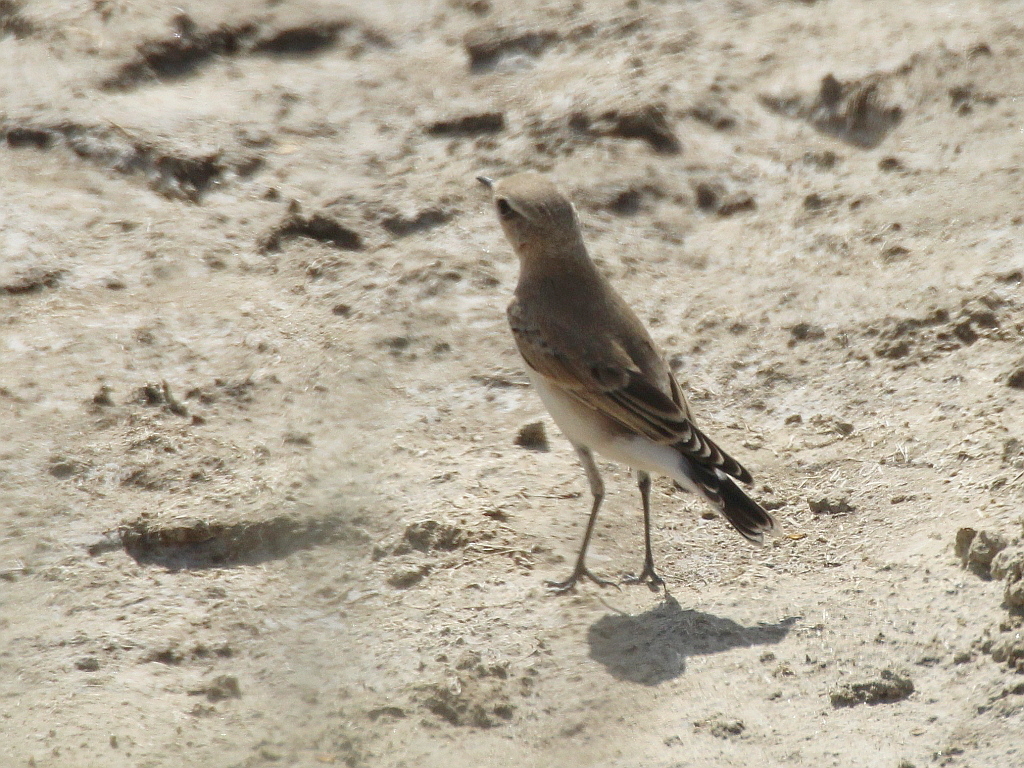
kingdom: Animalia
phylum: Chordata
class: Aves
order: Passeriformes
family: Muscicapidae
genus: Oenanthe
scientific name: Oenanthe oenanthe
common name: Northern wheatear
